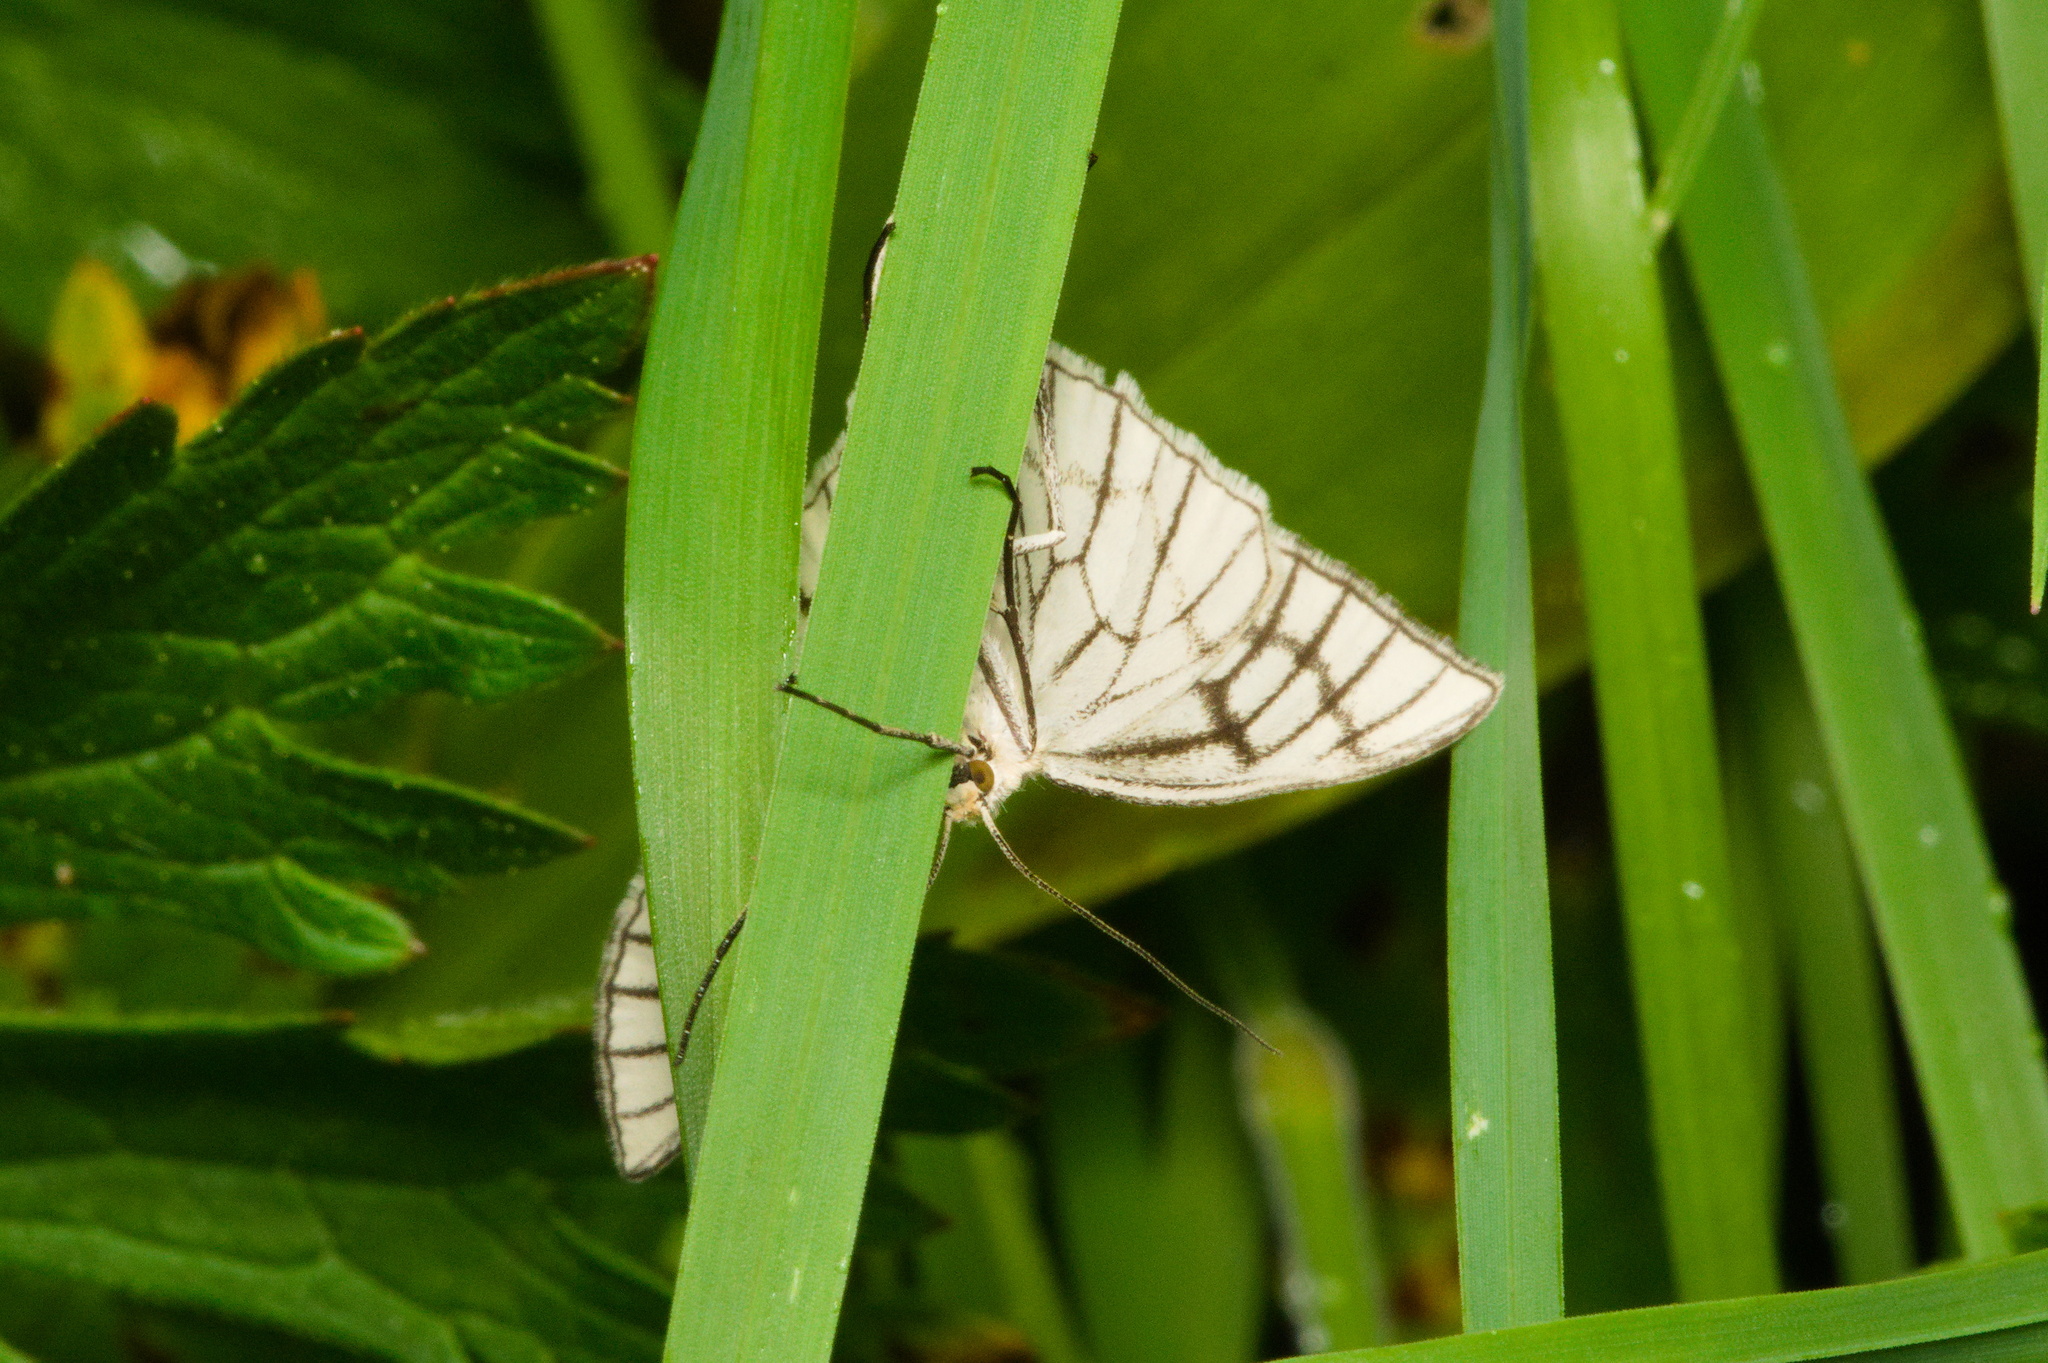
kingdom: Animalia
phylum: Arthropoda
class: Insecta
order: Lepidoptera
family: Geometridae
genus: Siona
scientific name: Siona lineata
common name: Black-veined moth
